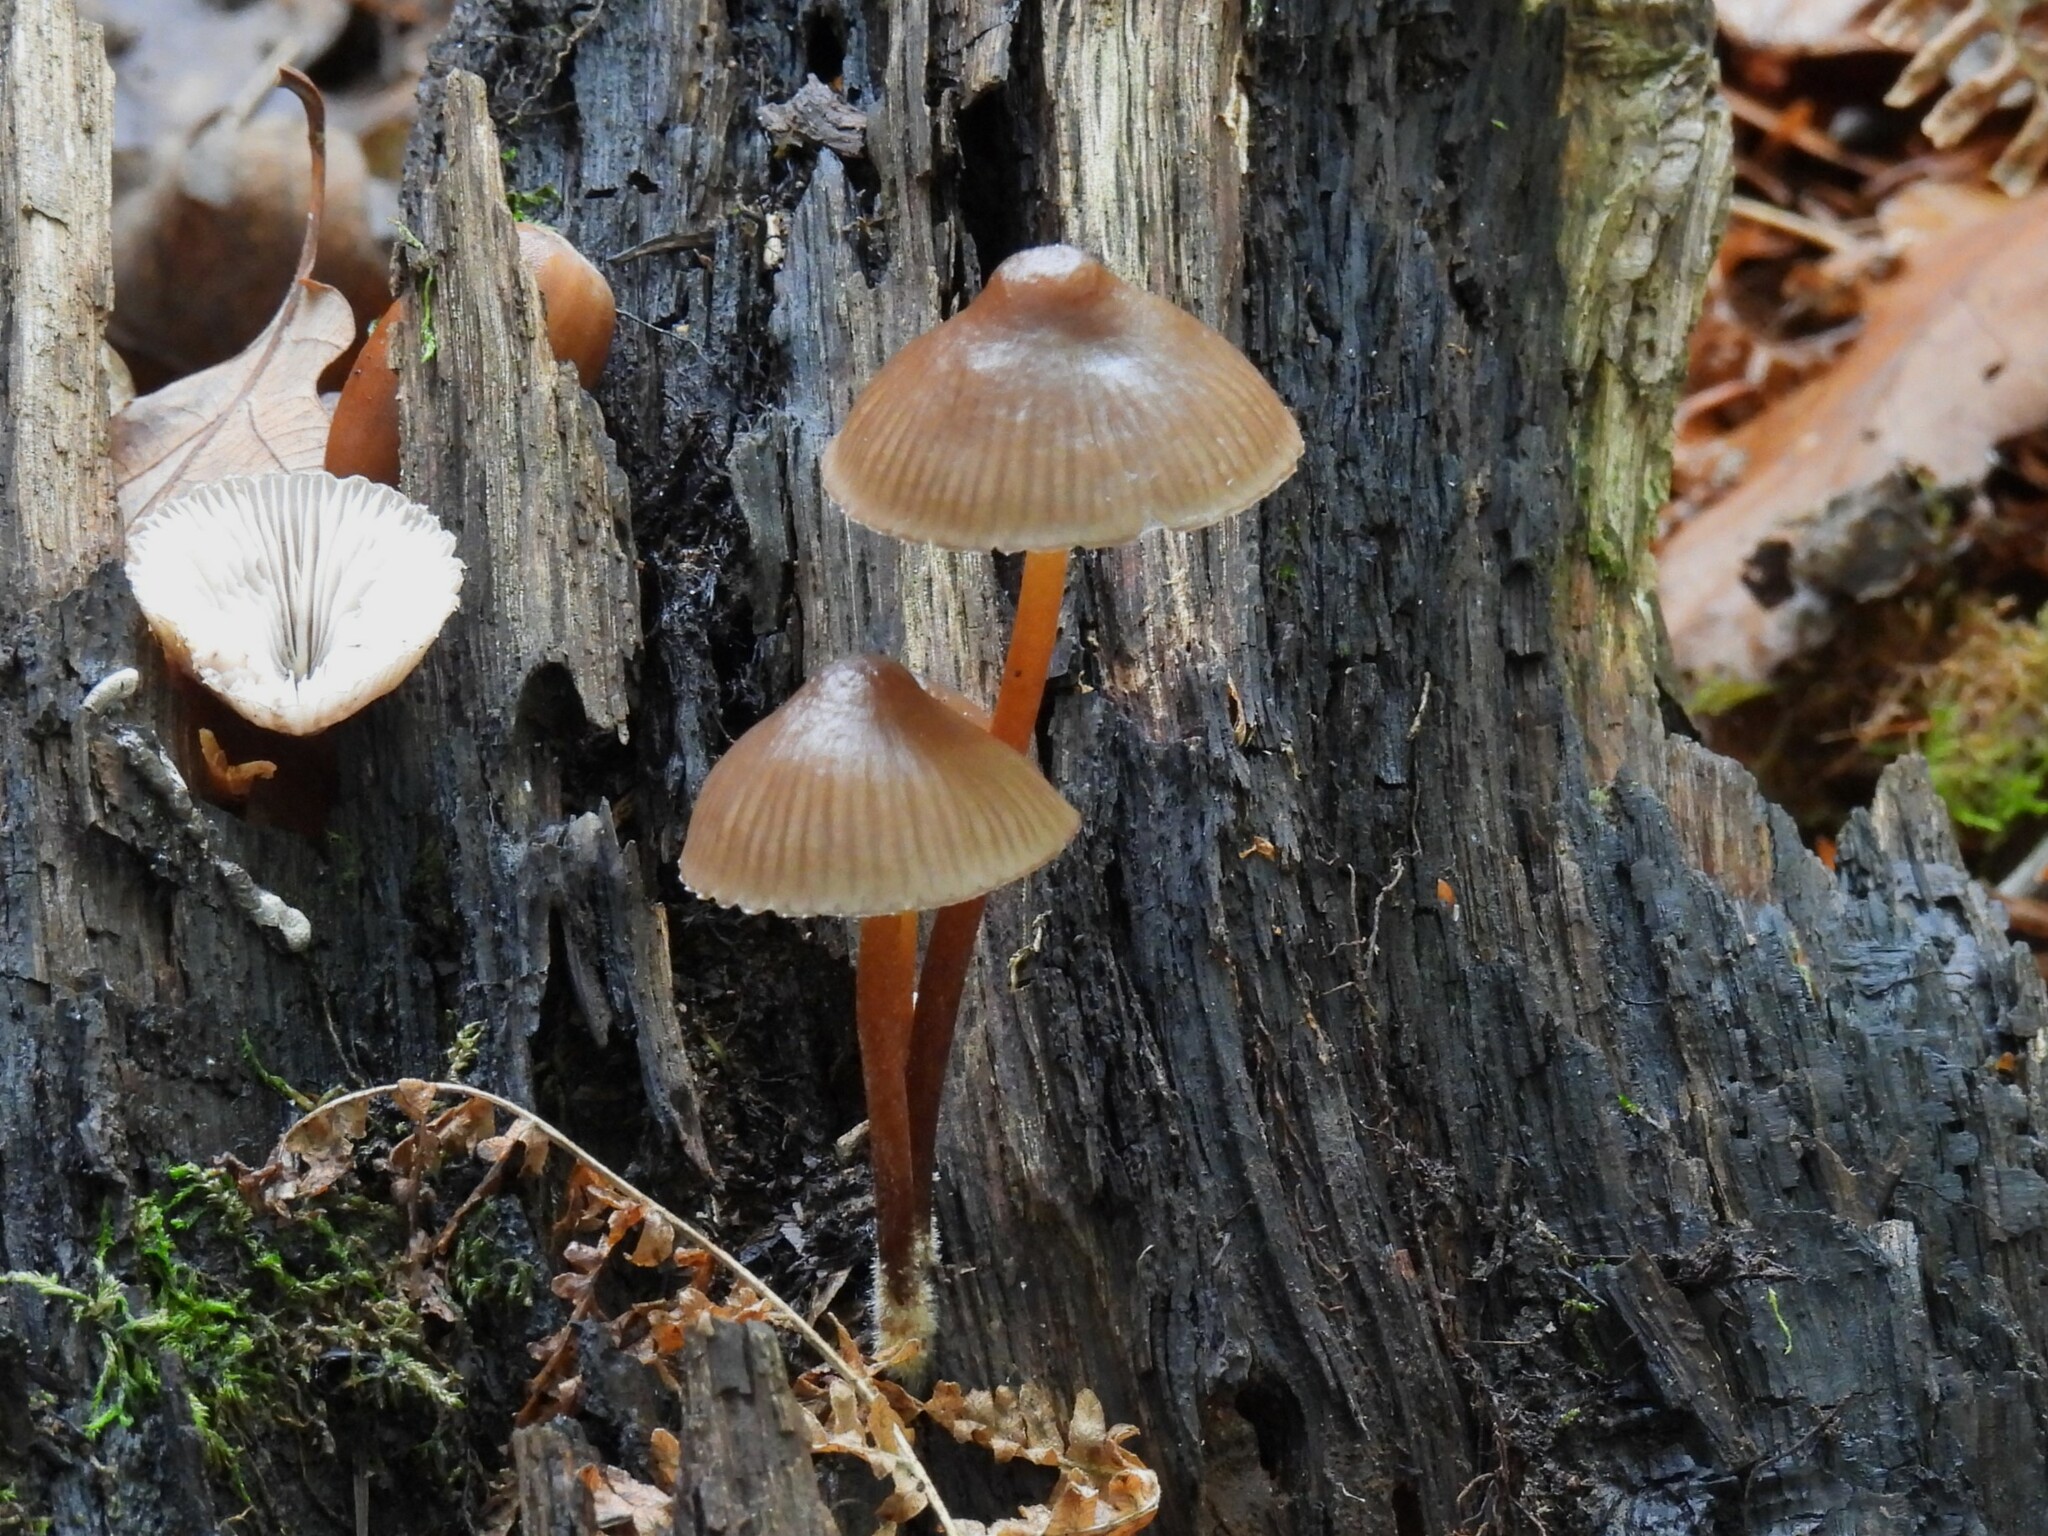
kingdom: Fungi
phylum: Basidiomycota
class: Agaricomycetes
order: Agaricales
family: Mycenaceae
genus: Mycena
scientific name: Mycena crocata
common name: Saffrondrop bonnet
